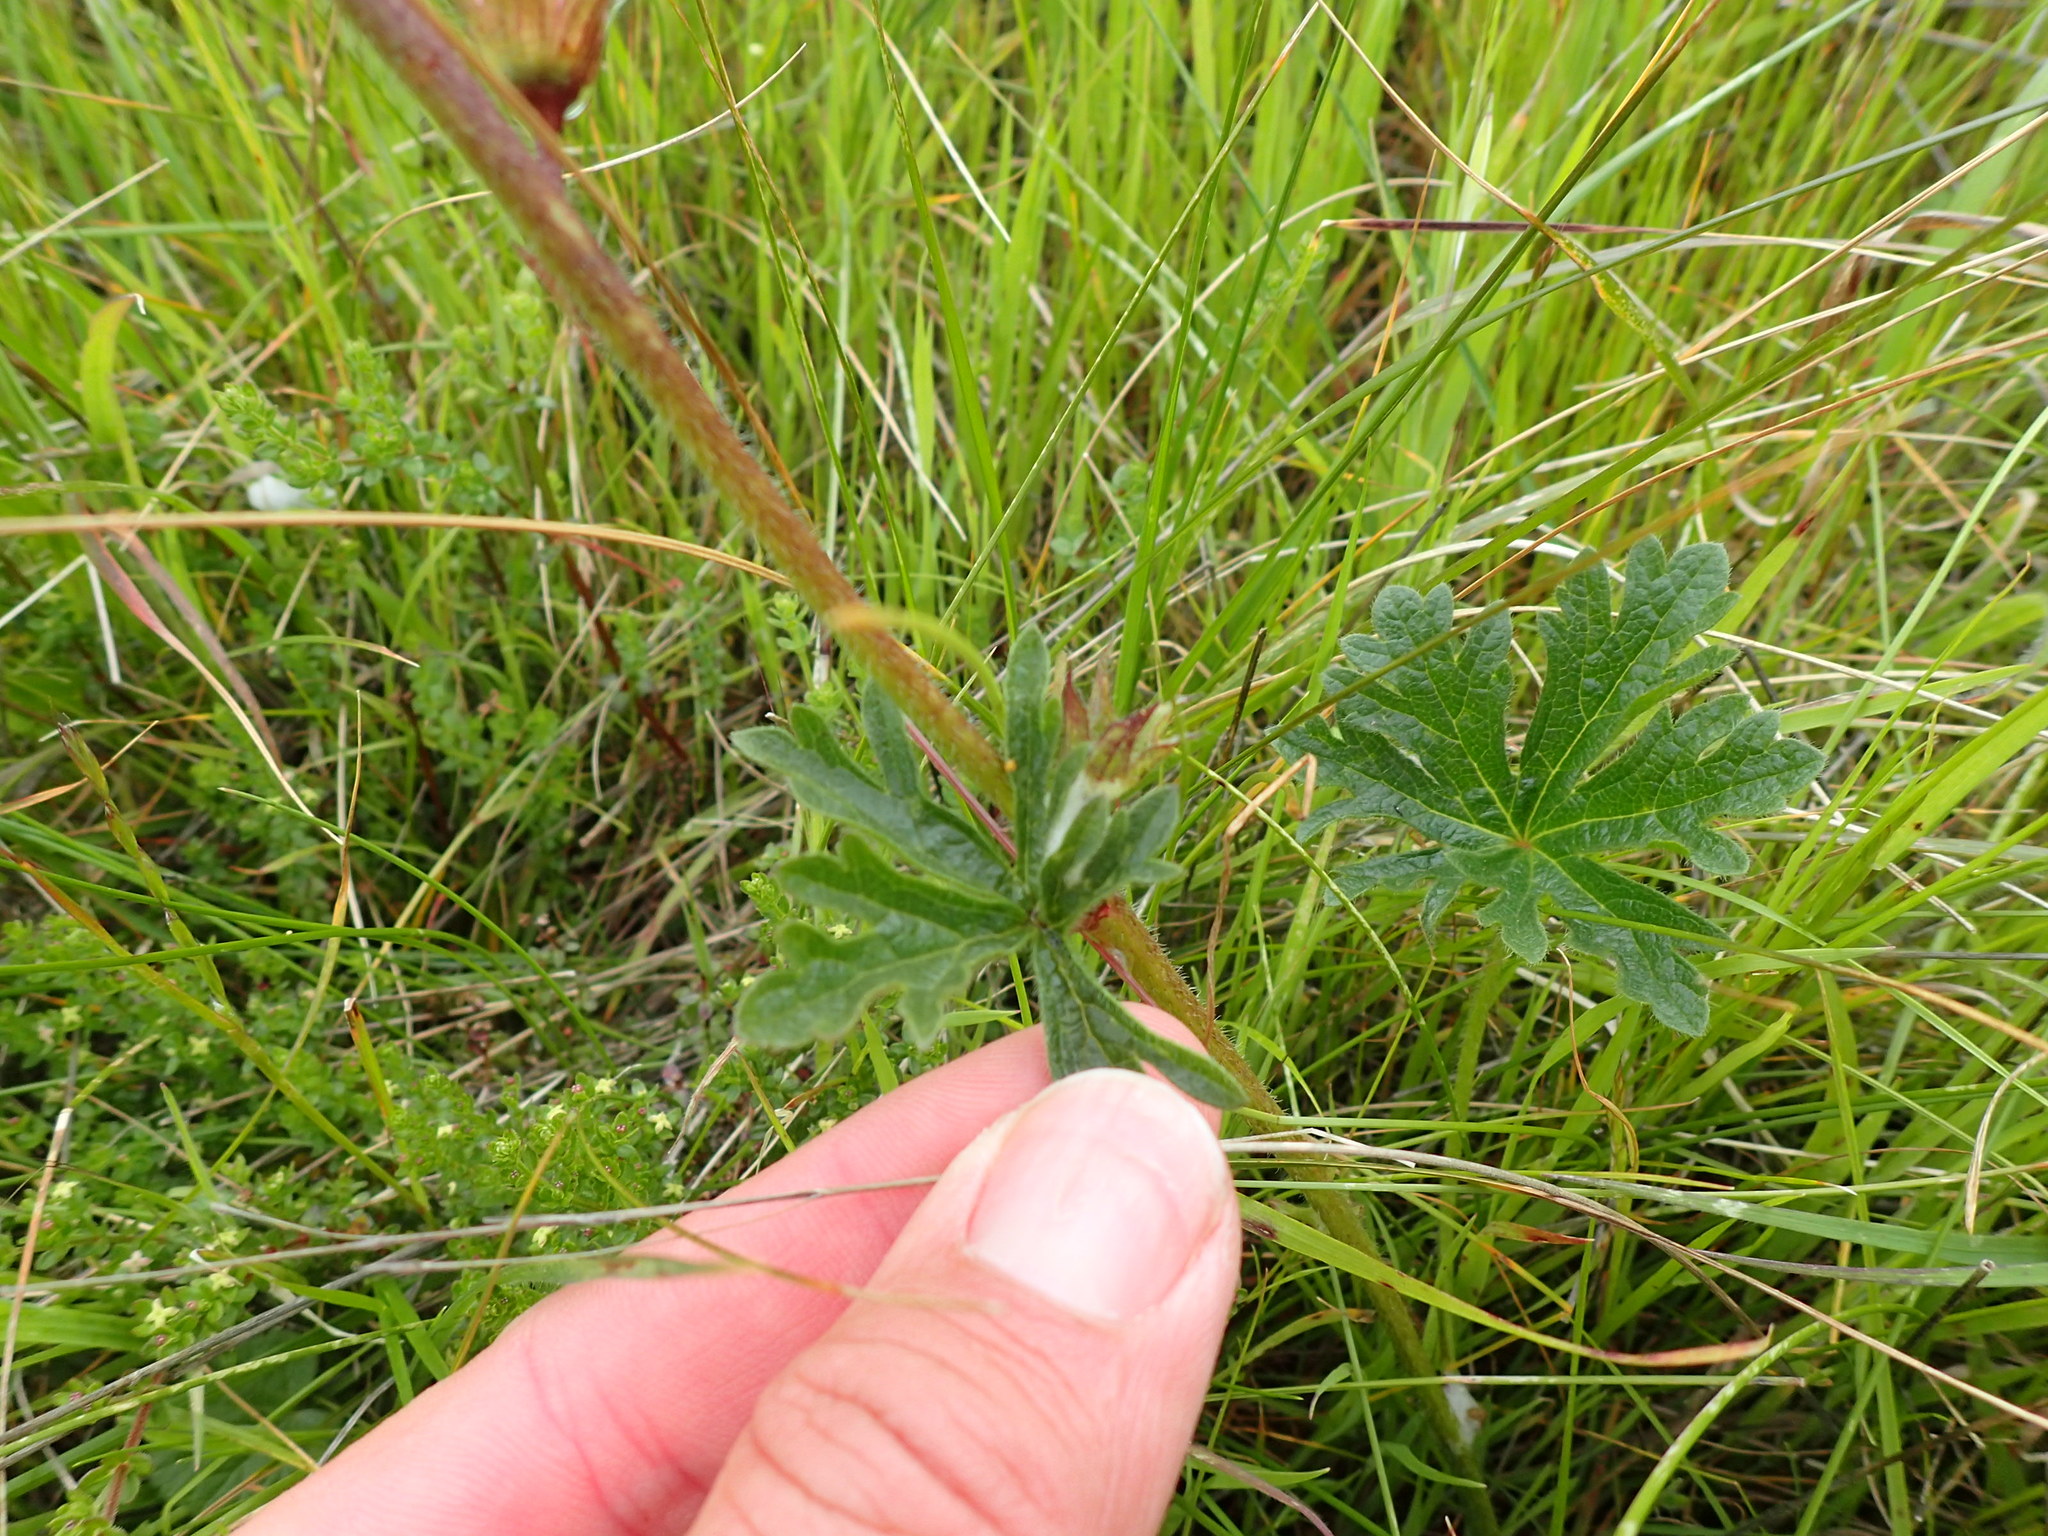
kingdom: Plantae
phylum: Tracheophyta
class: Magnoliopsida
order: Malvales
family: Malvaceae
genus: Sidalcea
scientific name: Sidalcea malviflora
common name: Greek mallow
